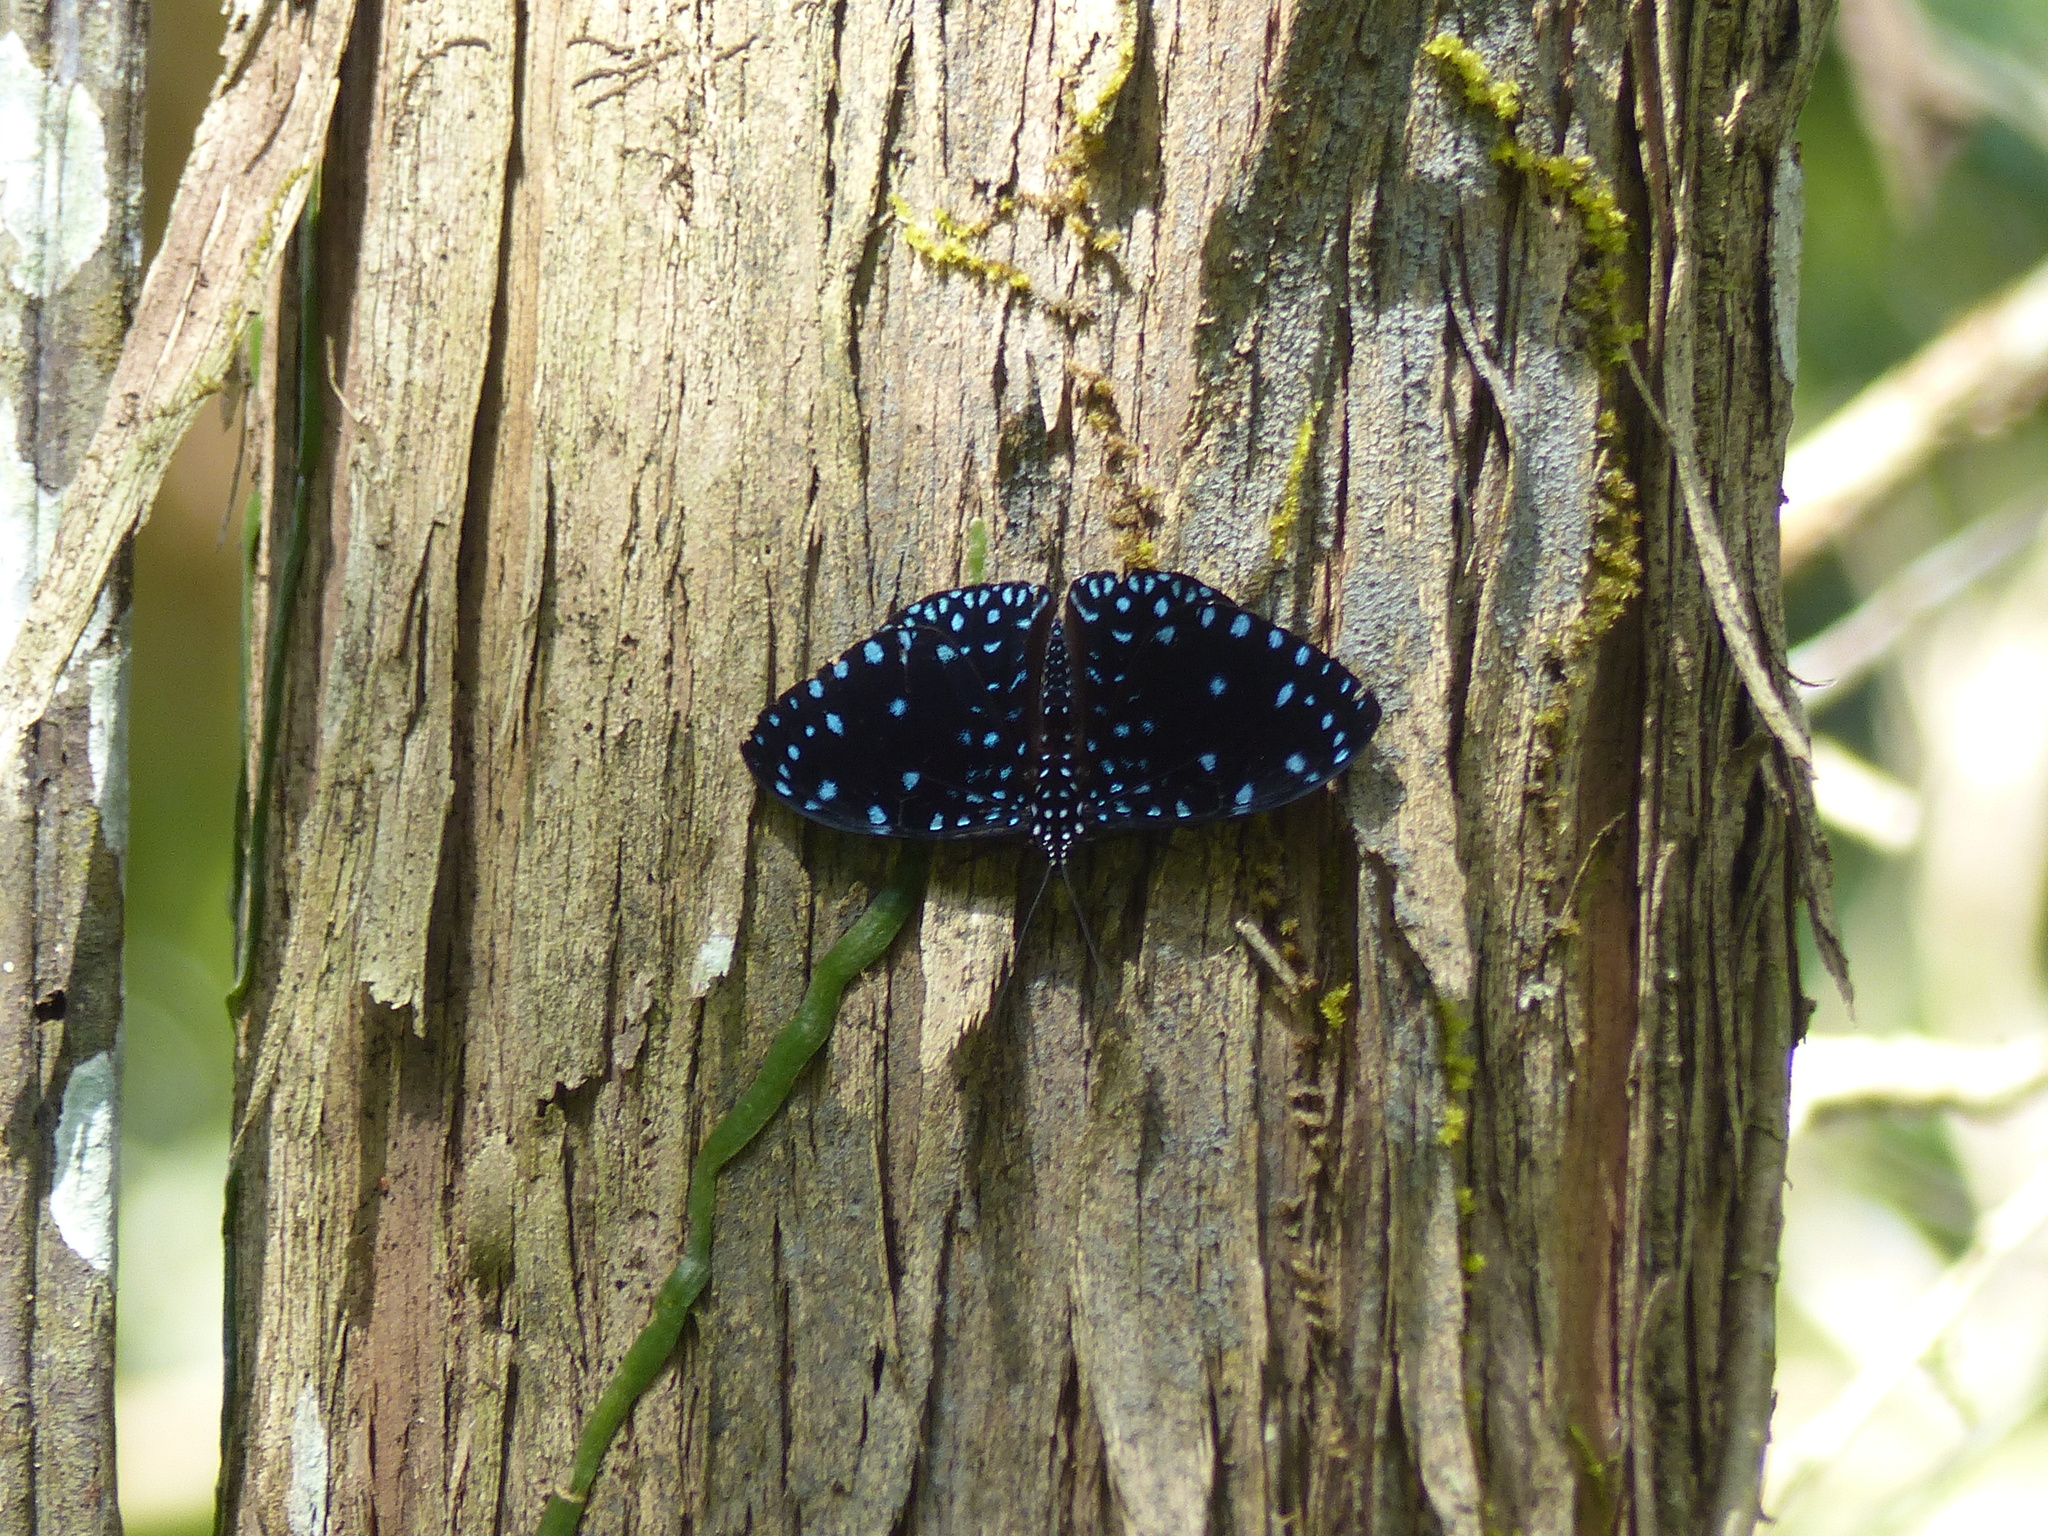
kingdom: Animalia
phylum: Arthropoda
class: Insecta
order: Lepidoptera
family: Nymphalidae
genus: Hamadryas
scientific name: Hamadryas laodamia
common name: Starry night cracker
